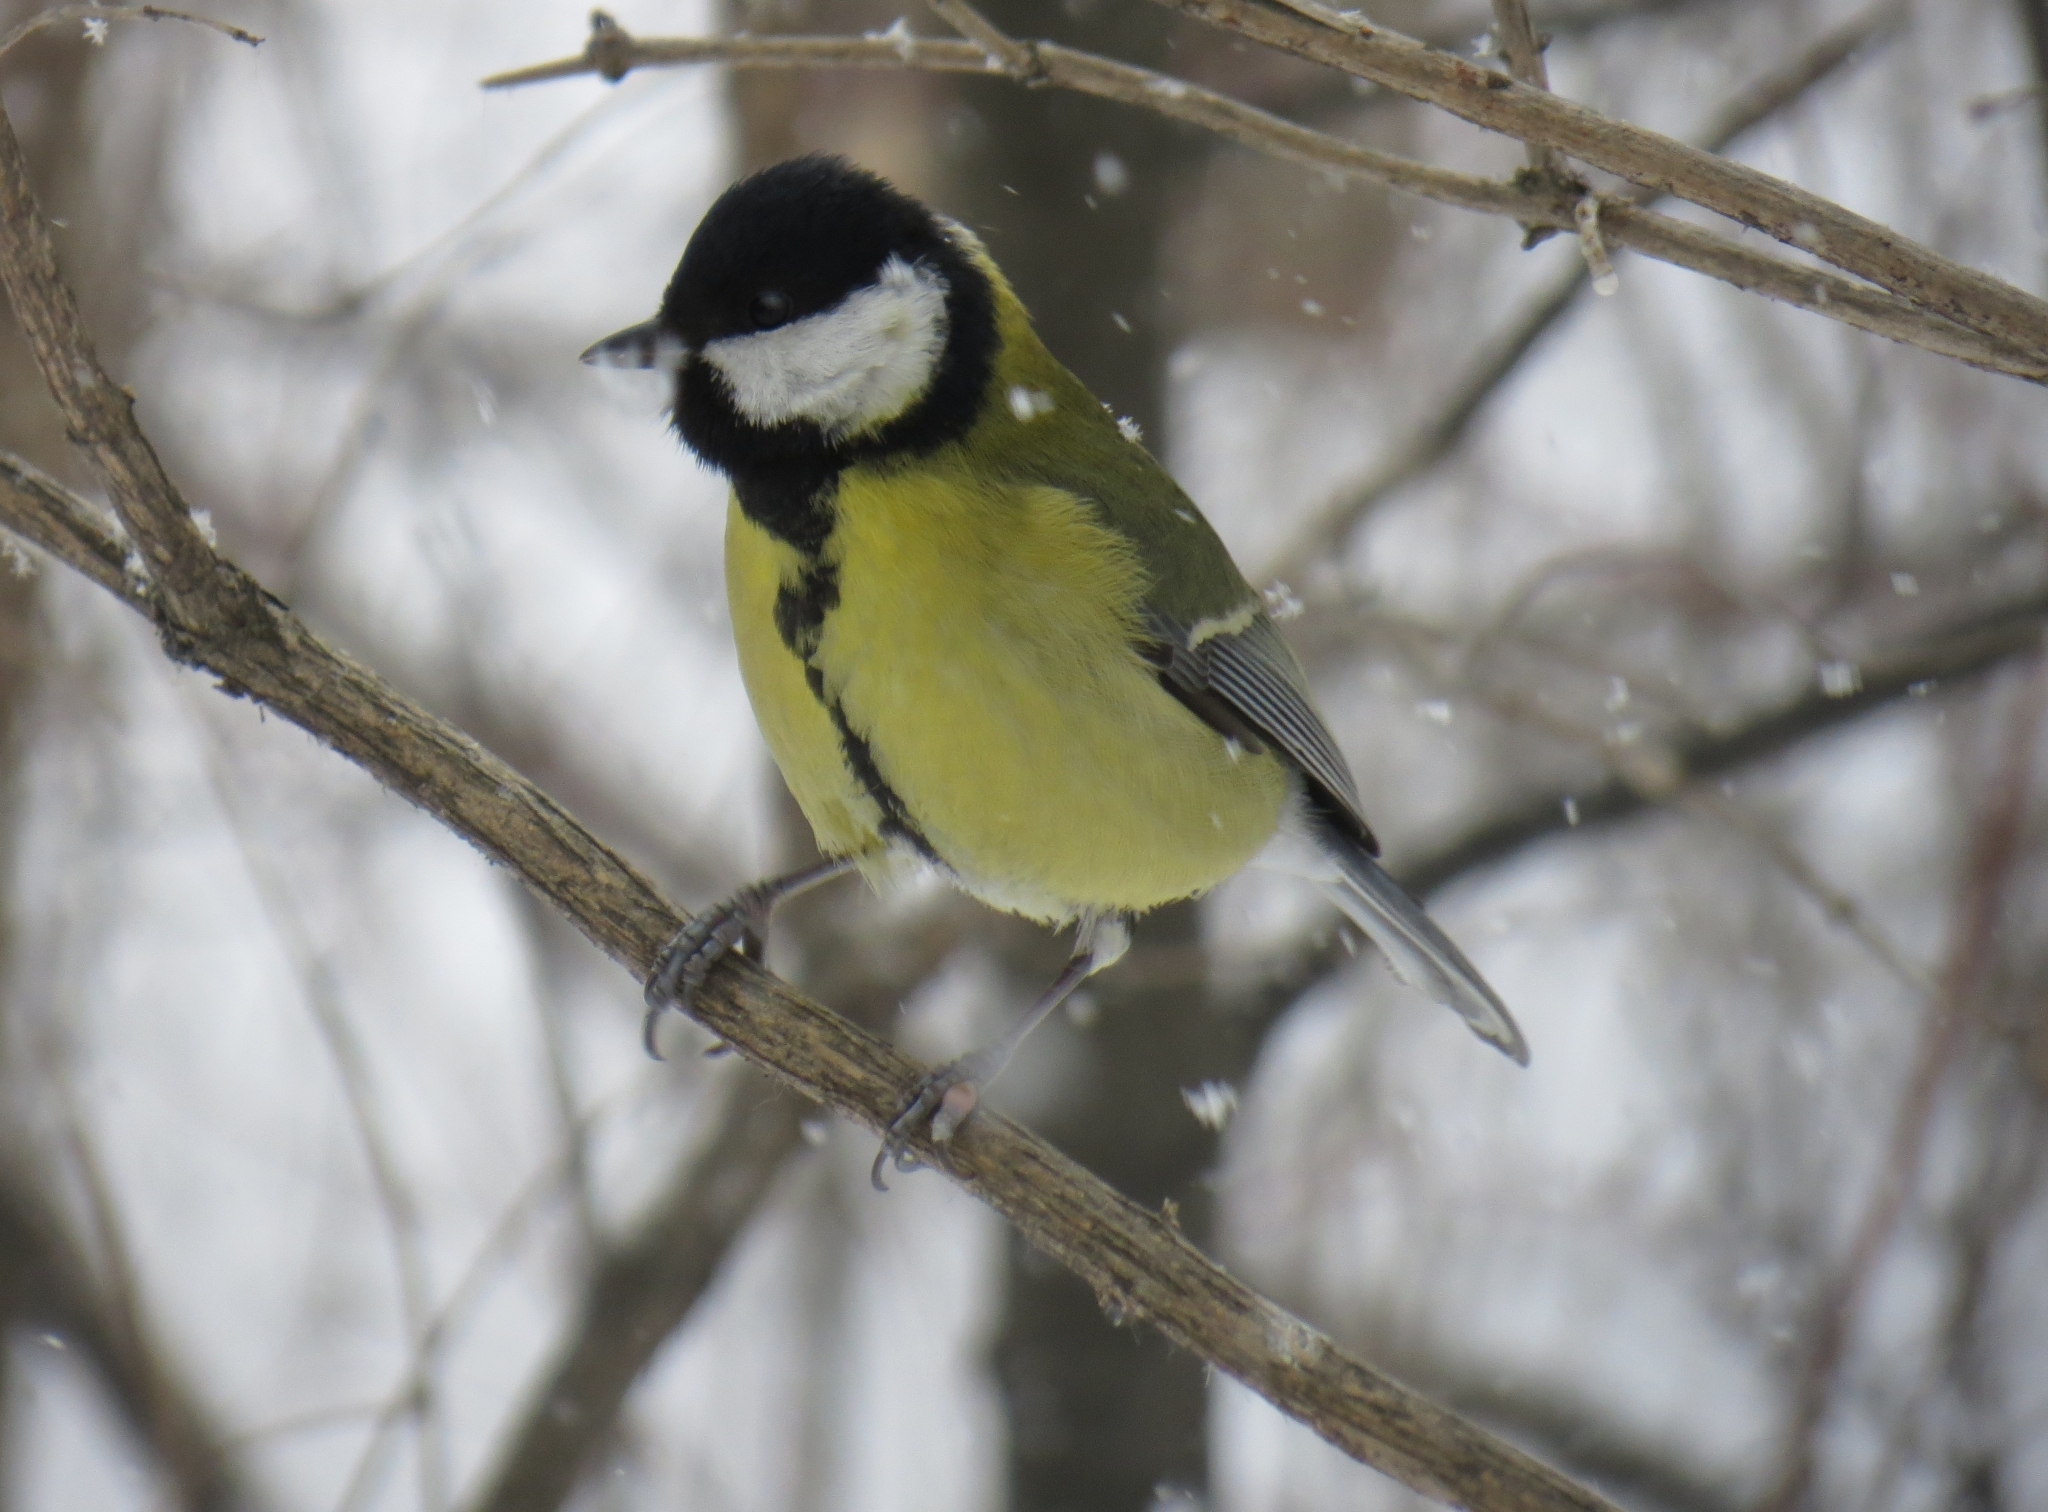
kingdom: Animalia
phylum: Chordata
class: Aves
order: Passeriformes
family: Paridae
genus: Parus
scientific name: Parus major
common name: Great tit
